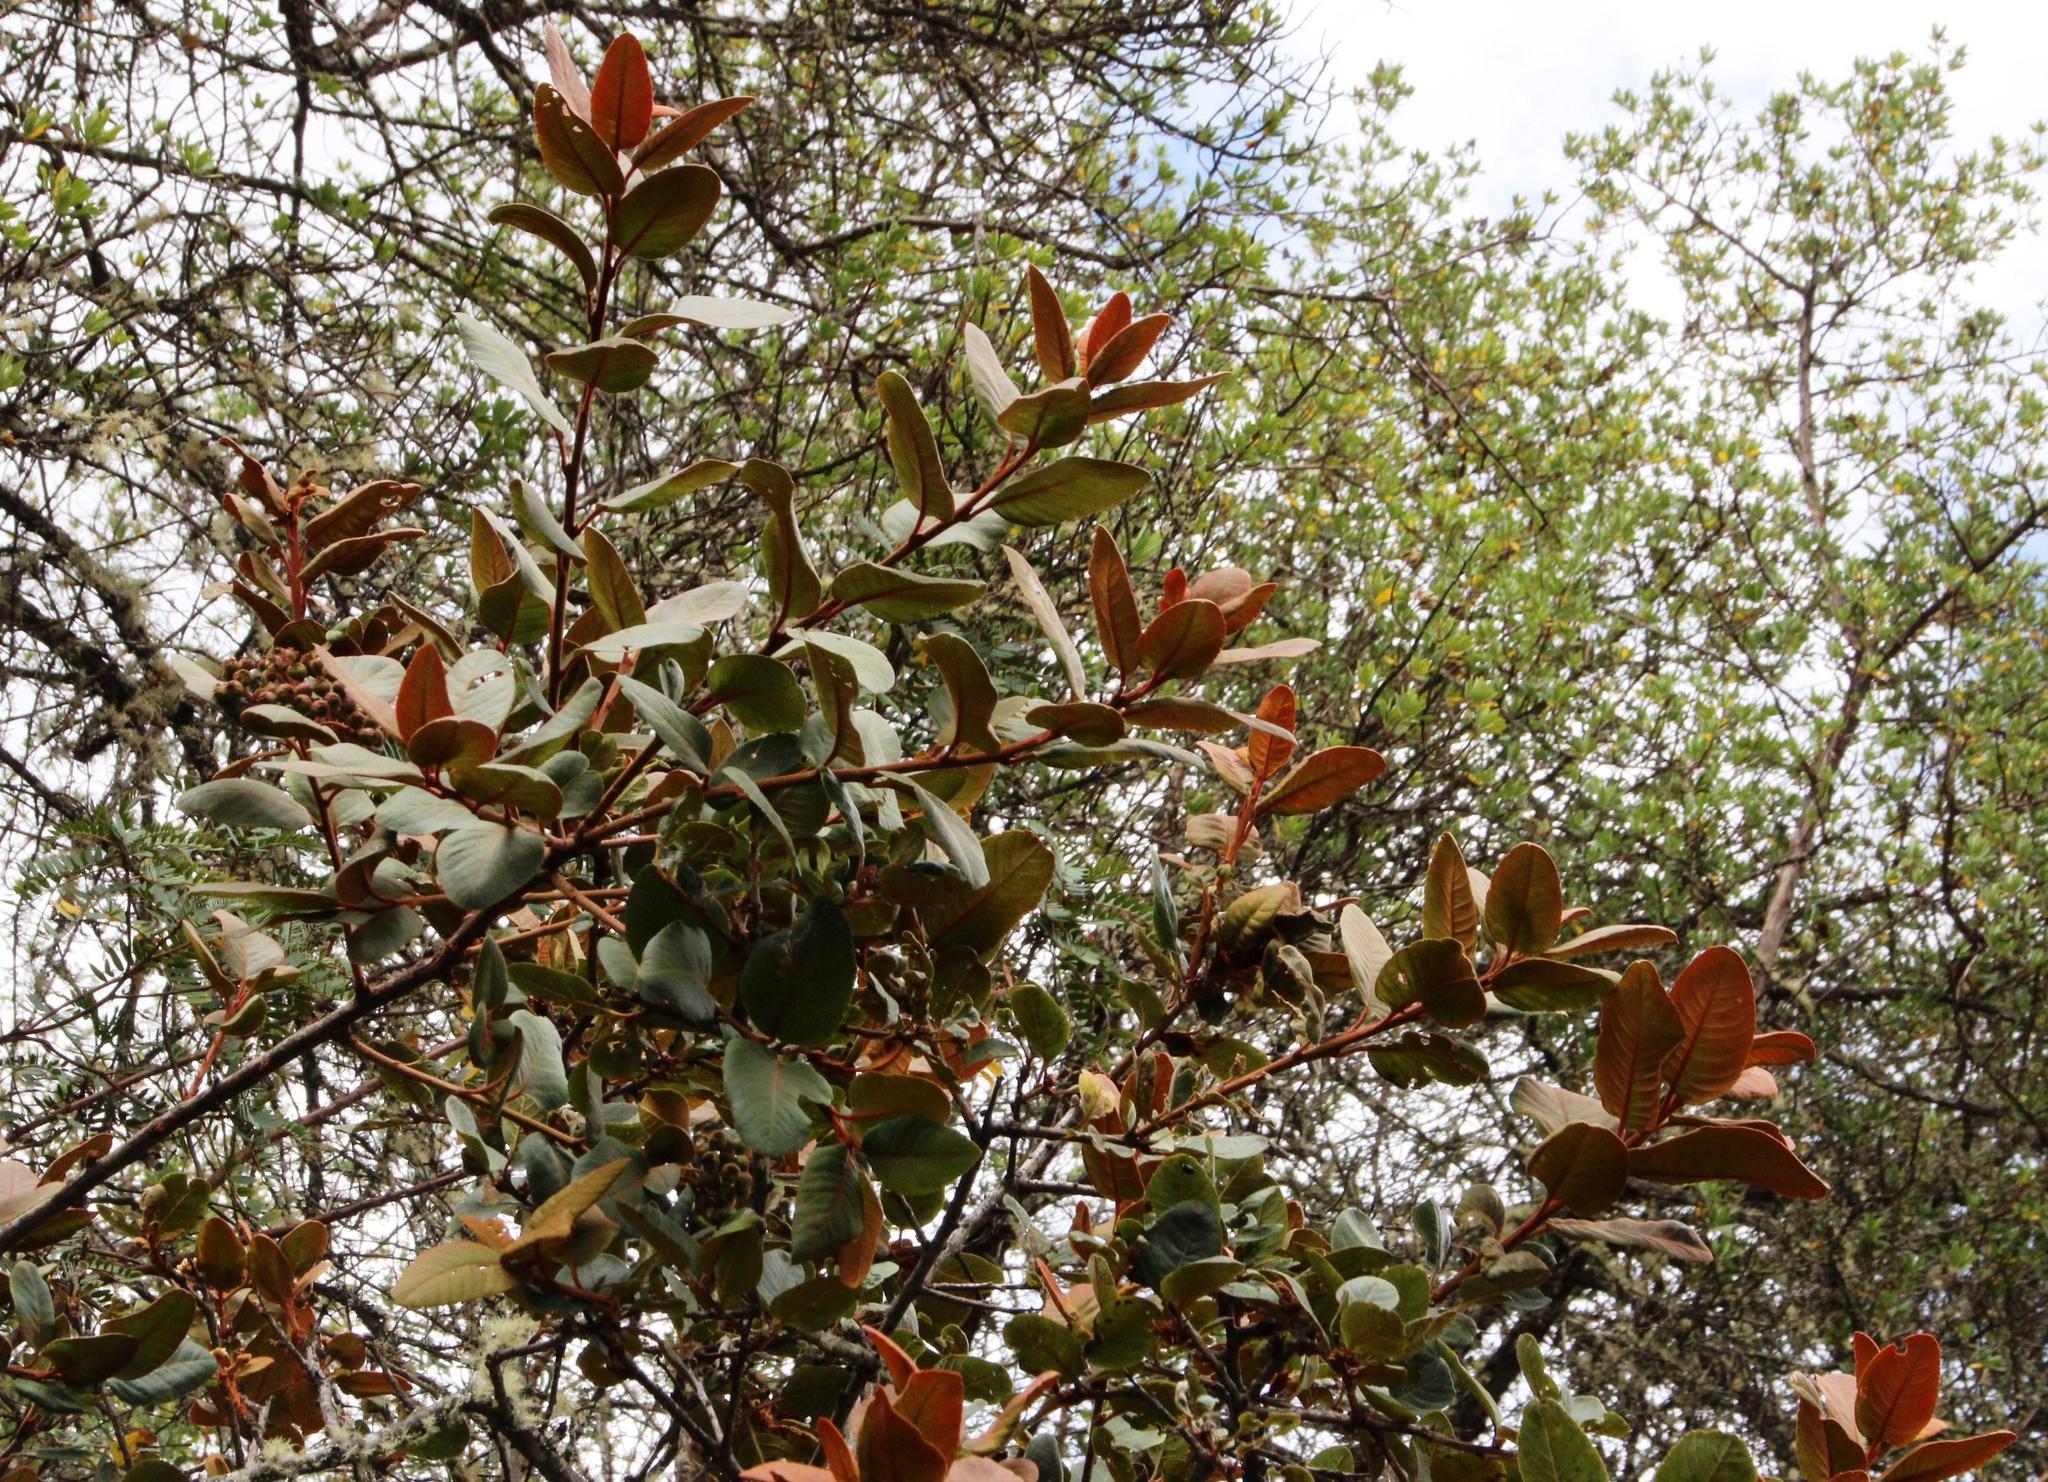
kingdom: Plantae
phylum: Tracheophyta
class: Magnoliopsida
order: Rosales
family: Rosaceae
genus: Hesperomeles
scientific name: Hesperomeles ferruginea
